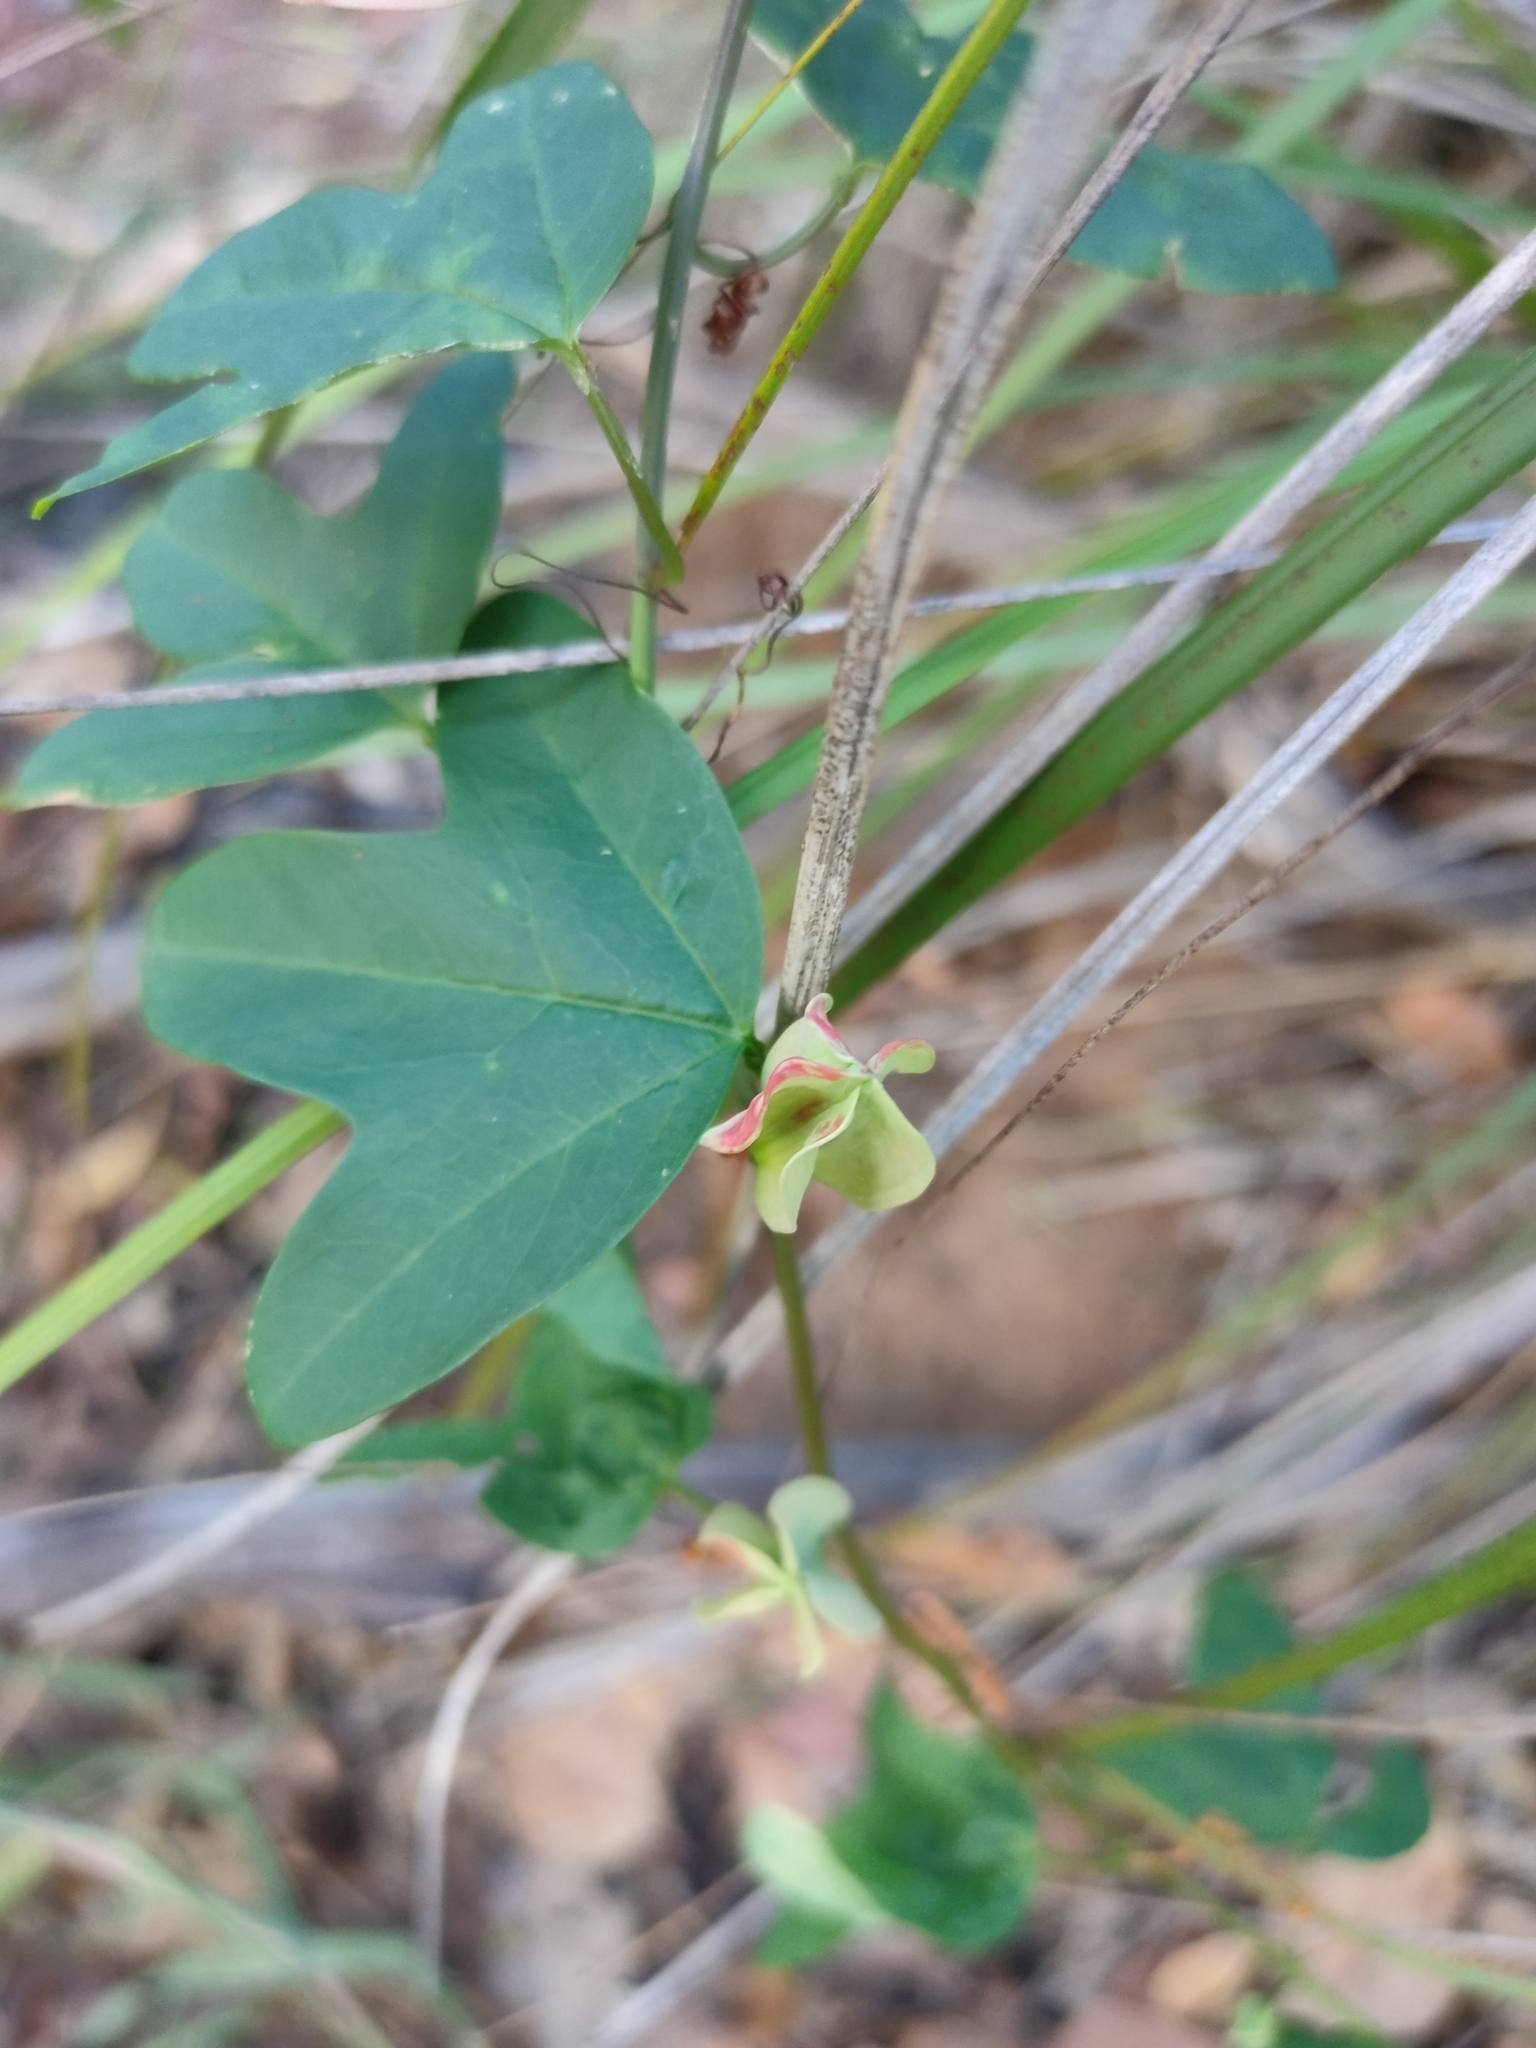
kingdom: Plantae
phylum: Tracheophyta
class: Magnoliopsida
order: Malpighiales
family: Passifloraceae
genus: Passiflora
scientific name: Passiflora aurantia
